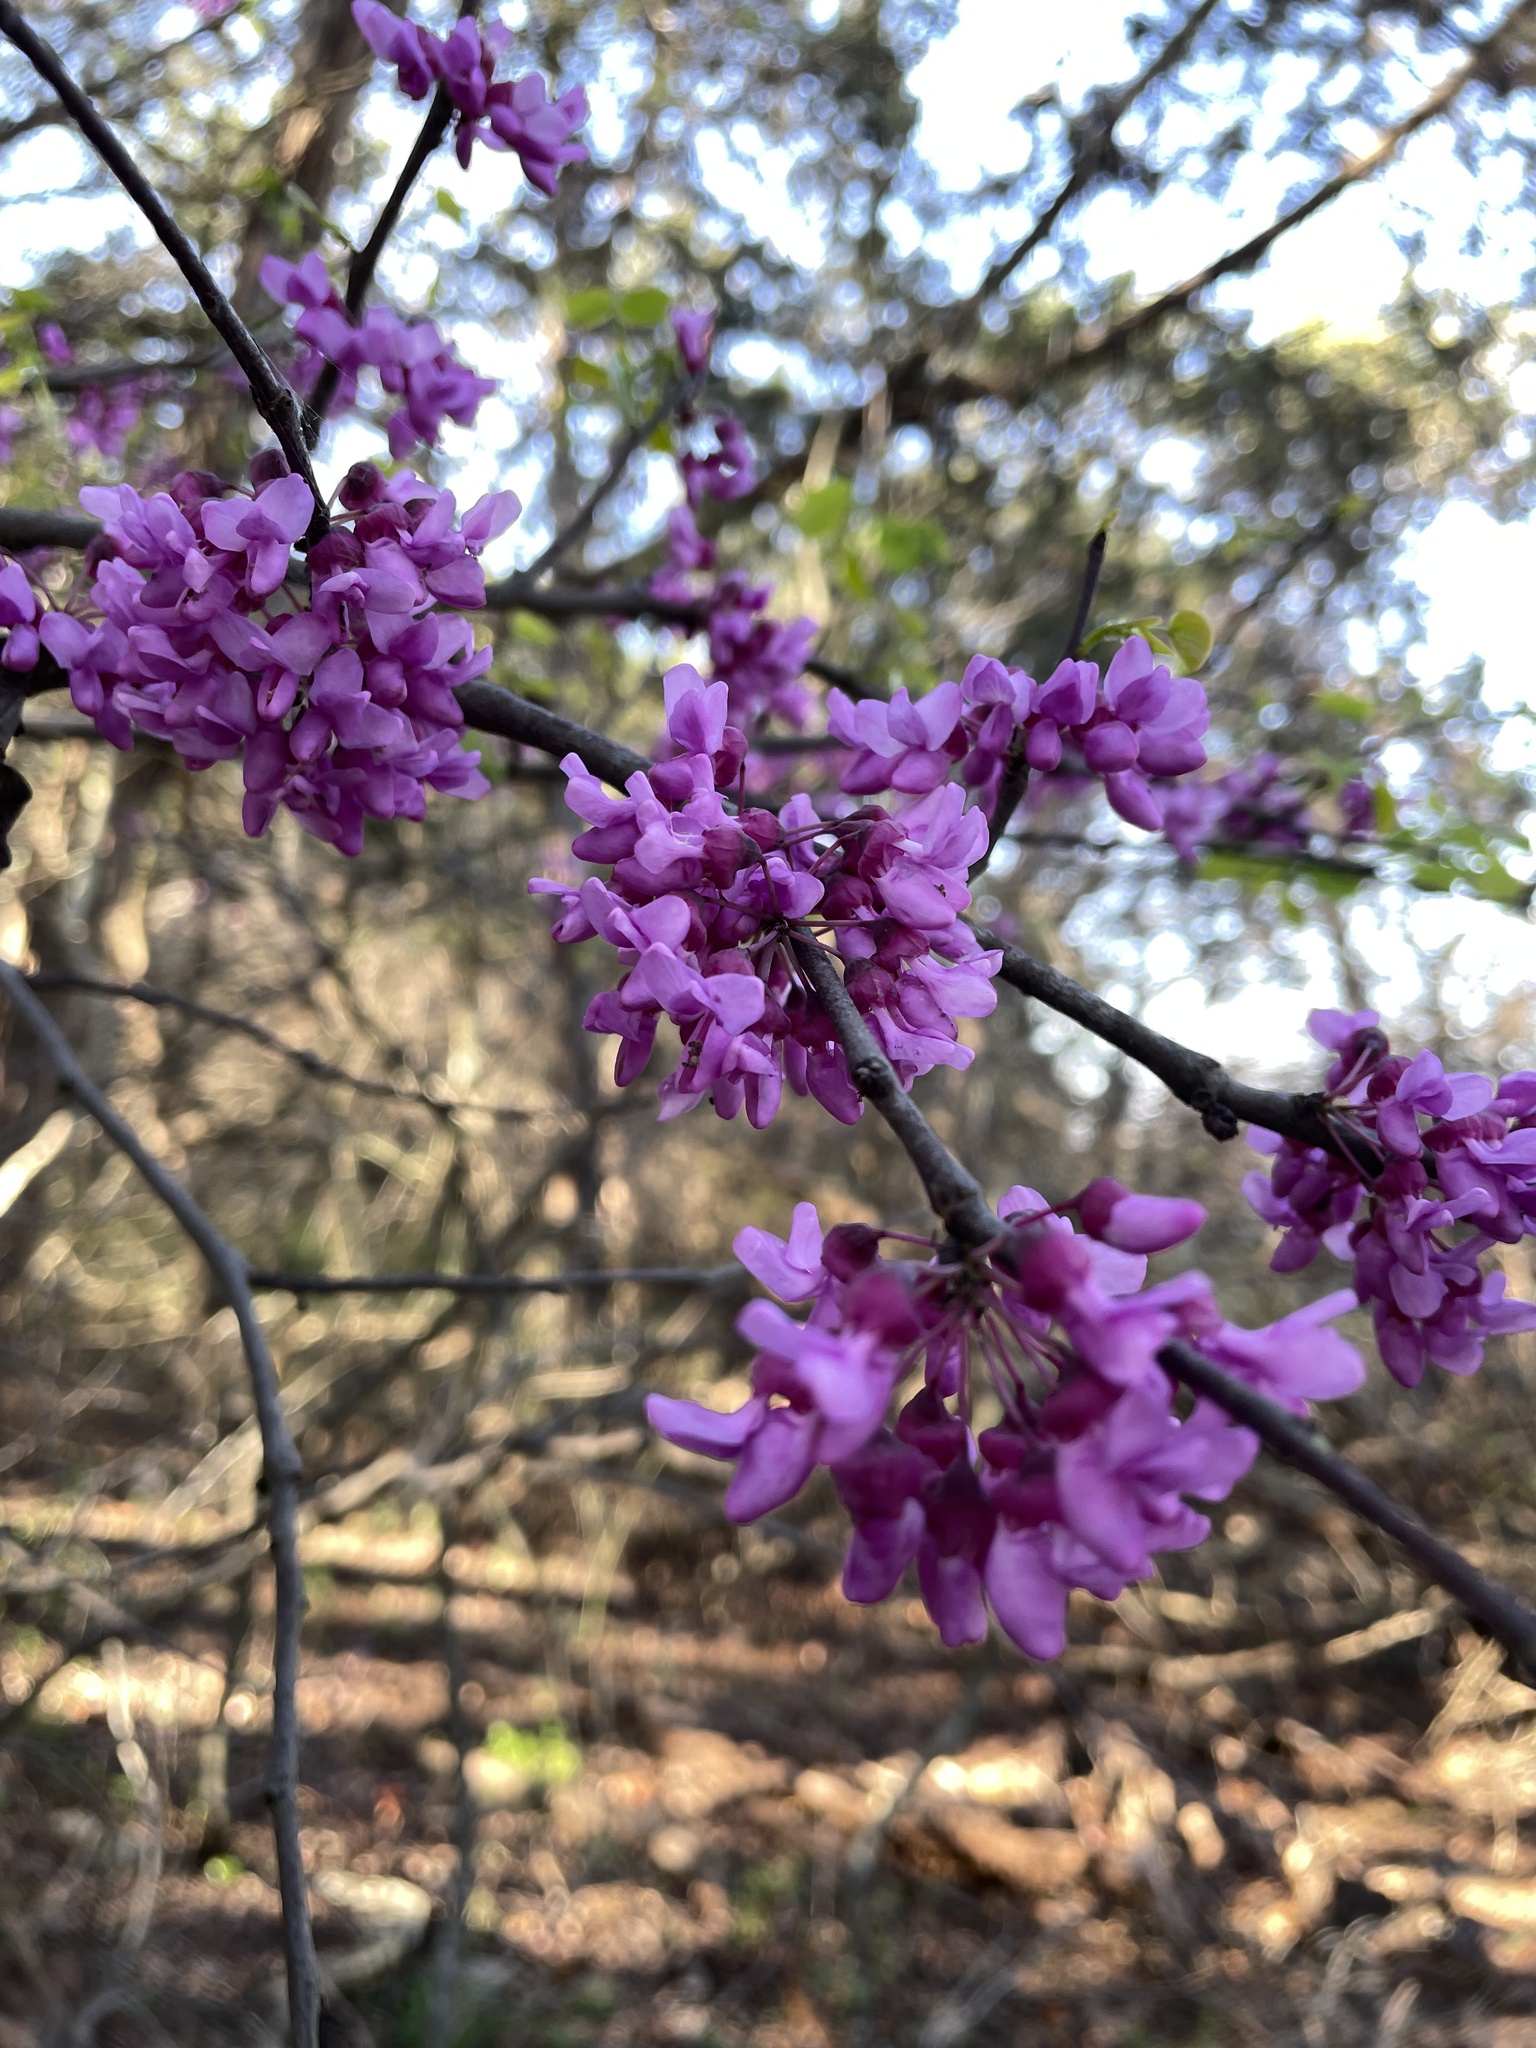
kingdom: Plantae
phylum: Tracheophyta
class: Magnoliopsida
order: Fabales
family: Fabaceae
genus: Cercis
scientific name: Cercis canadensis
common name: Eastern redbud
